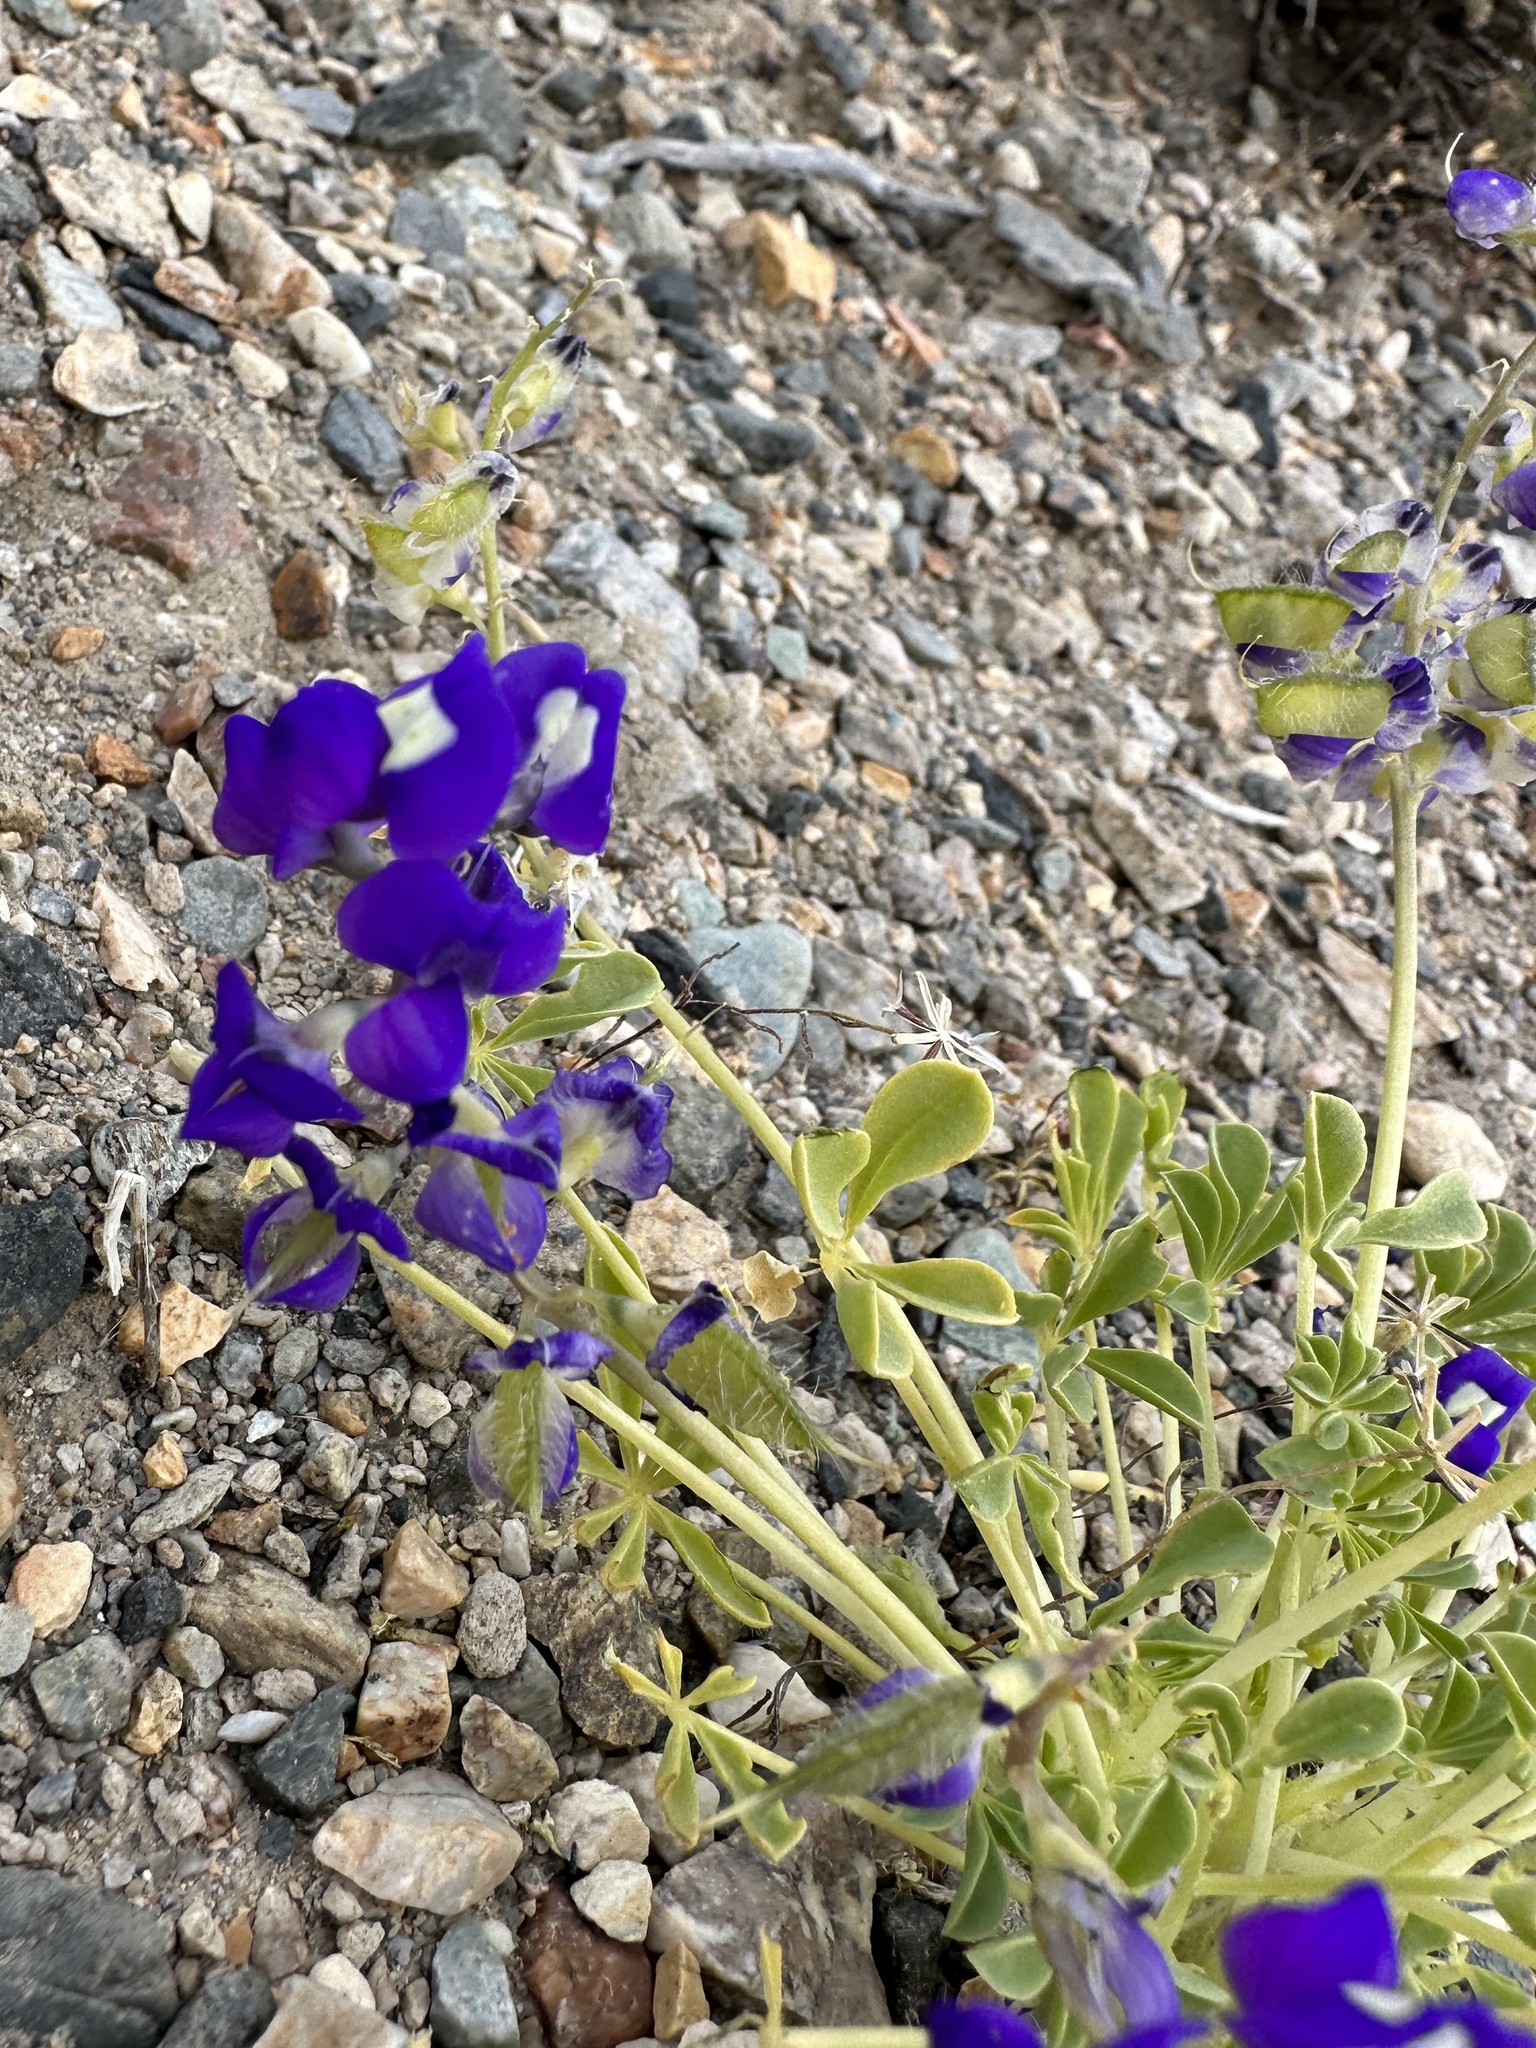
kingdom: Plantae
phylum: Tracheophyta
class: Magnoliopsida
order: Fabales
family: Fabaceae
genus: Lupinus
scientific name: Lupinus
